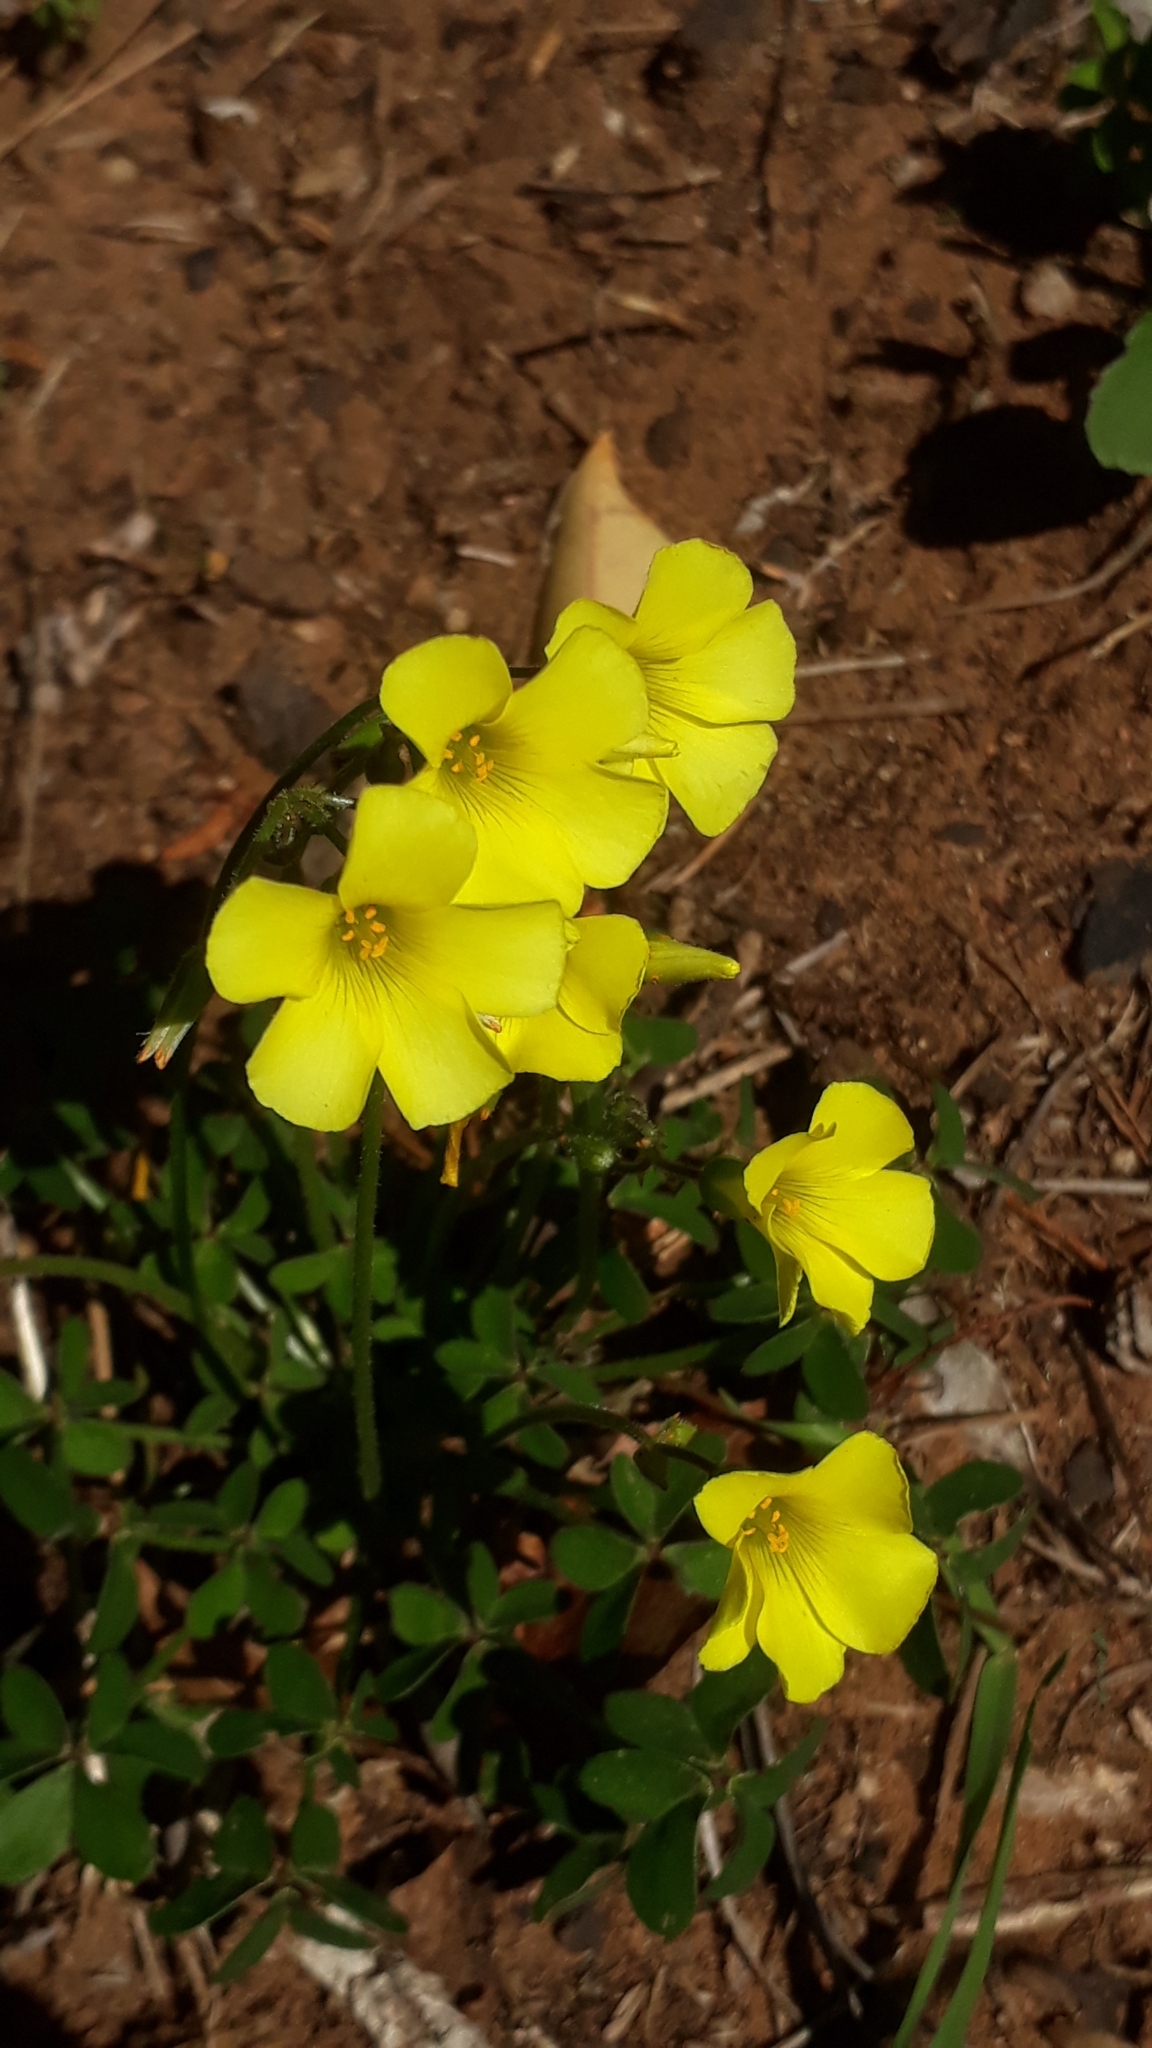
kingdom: Plantae
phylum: Tracheophyta
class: Magnoliopsida
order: Oxalidales
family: Oxalidaceae
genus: Oxalis
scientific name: Oxalis pes-caprae
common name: Bermuda-buttercup
